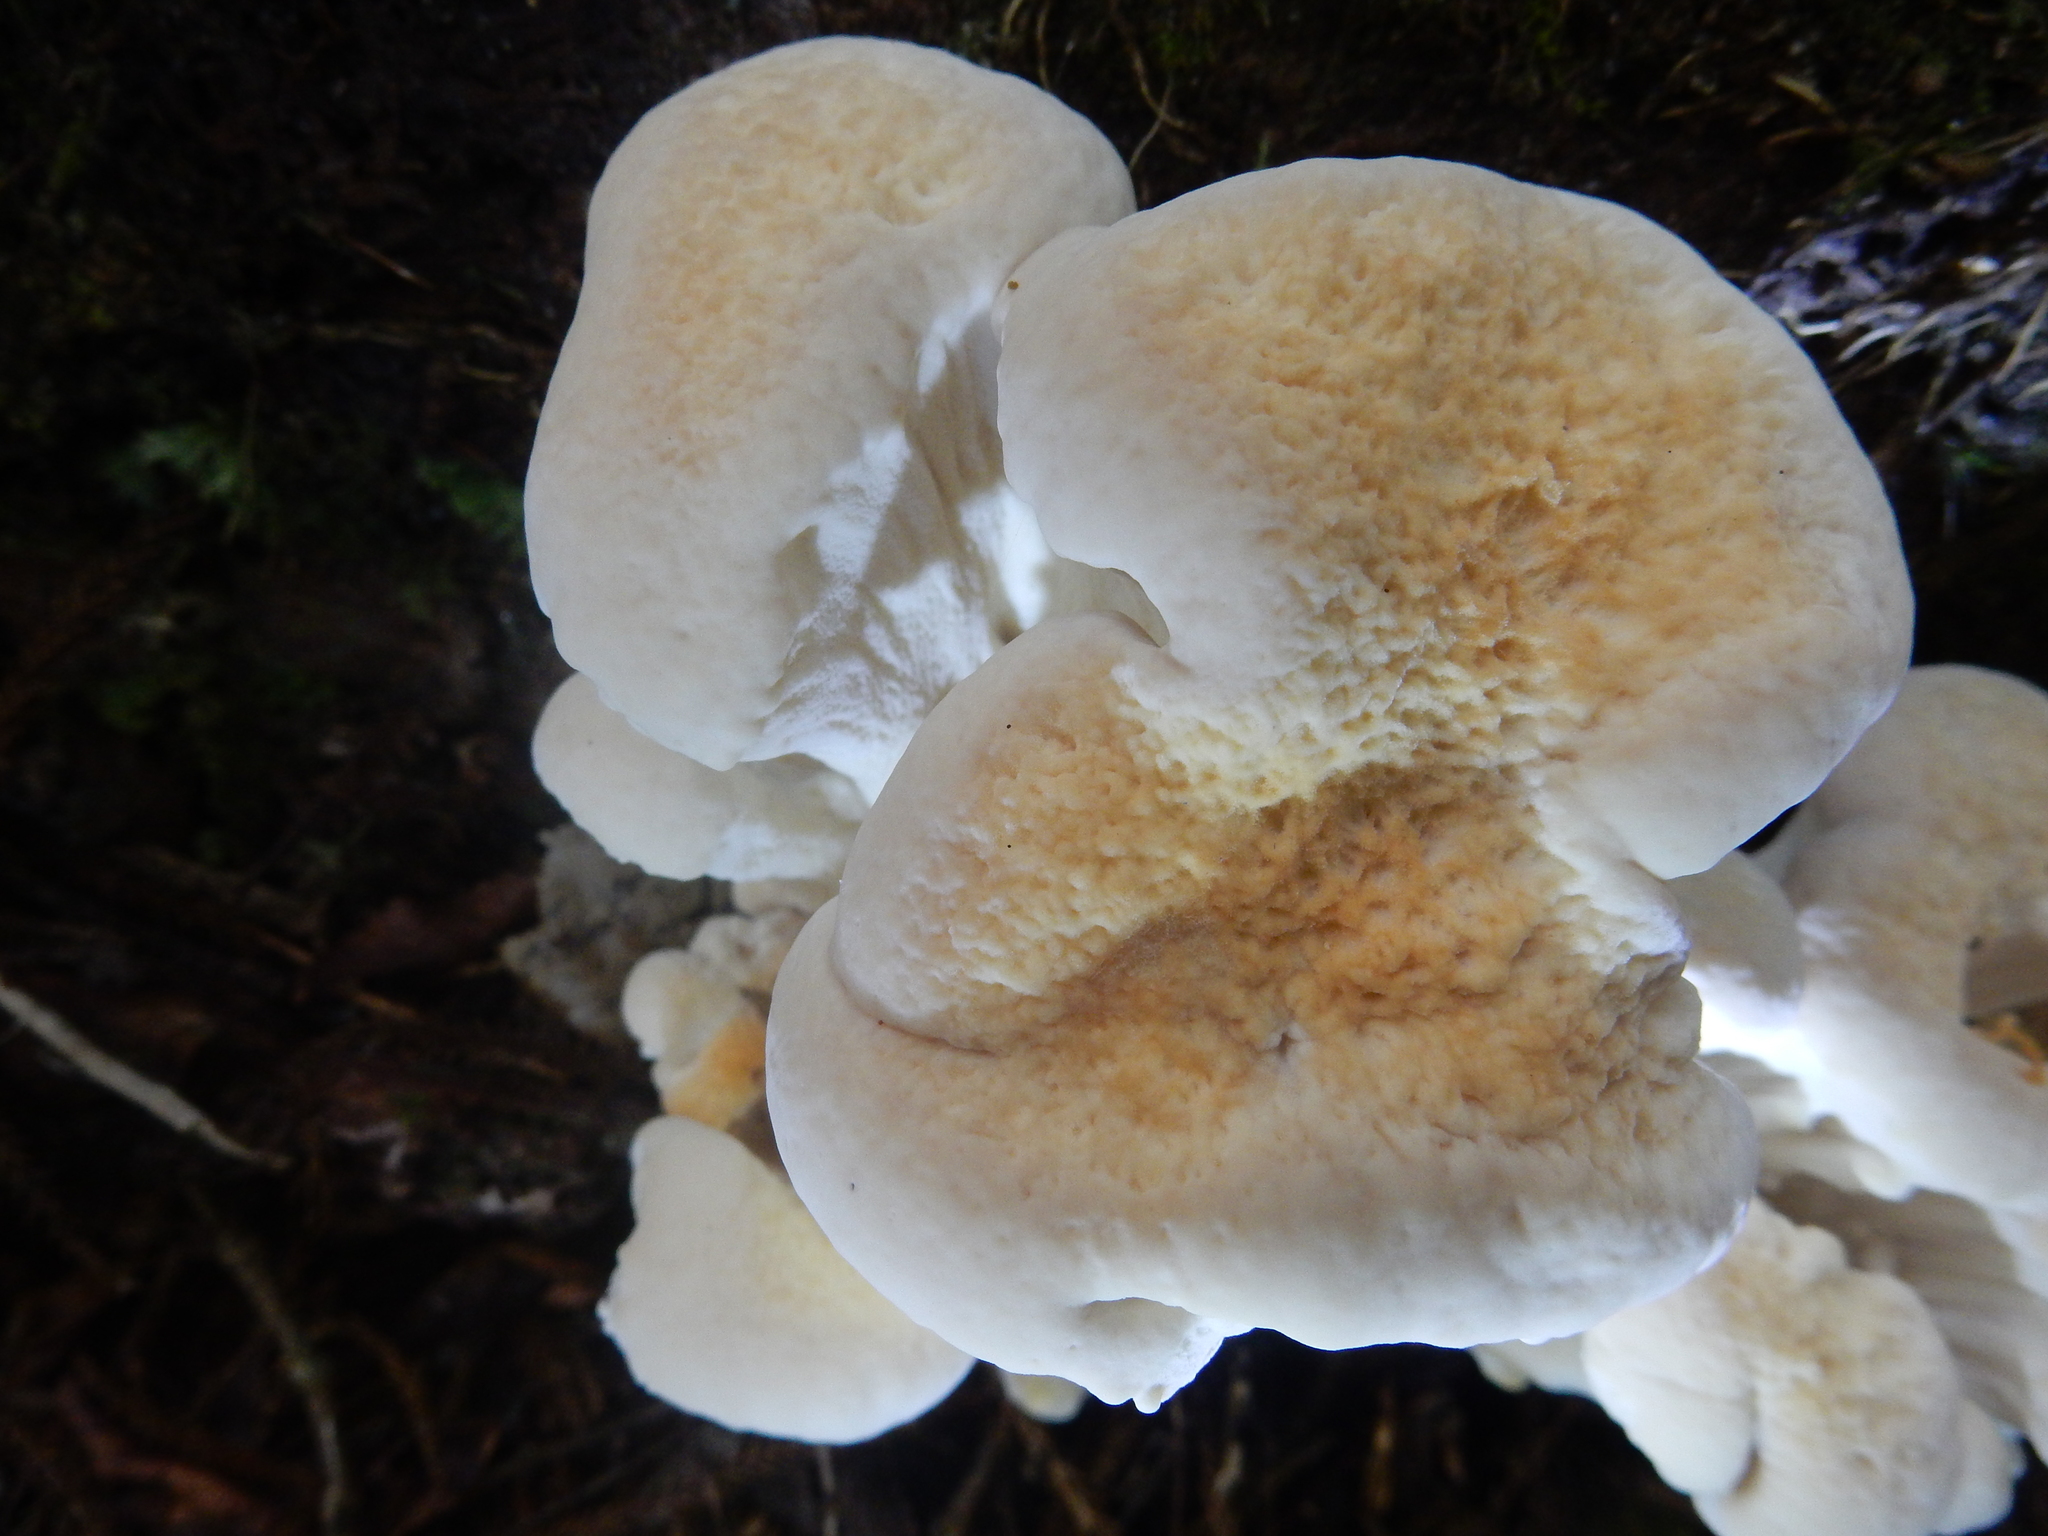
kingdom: Fungi
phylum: Basidiomycota
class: Agaricomycetes
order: Russulales
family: Bondarzewiaceae
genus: Bondarzewia
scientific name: Bondarzewia propria
